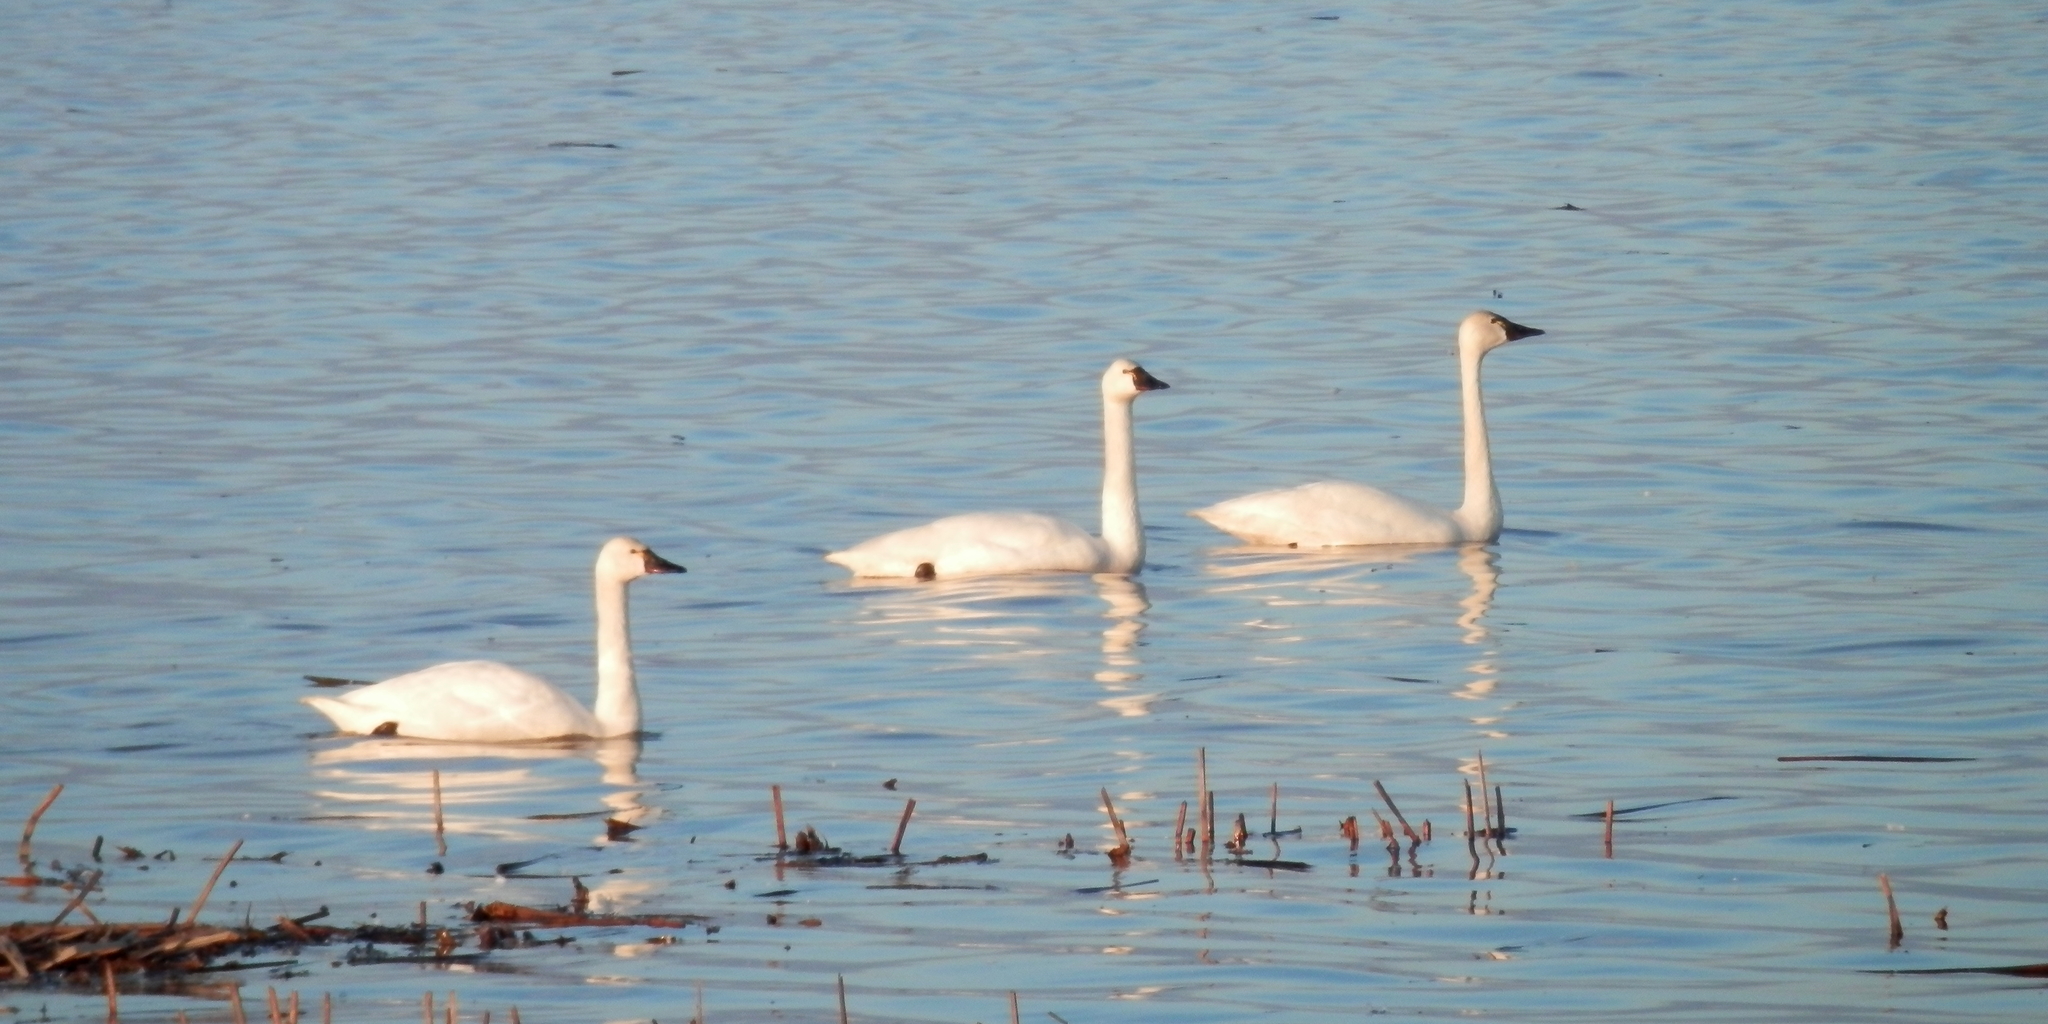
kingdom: Animalia
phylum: Chordata
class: Aves
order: Anseriformes
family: Anatidae
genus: Cygnus
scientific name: Cygnus columbianus
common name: Tundra swan
